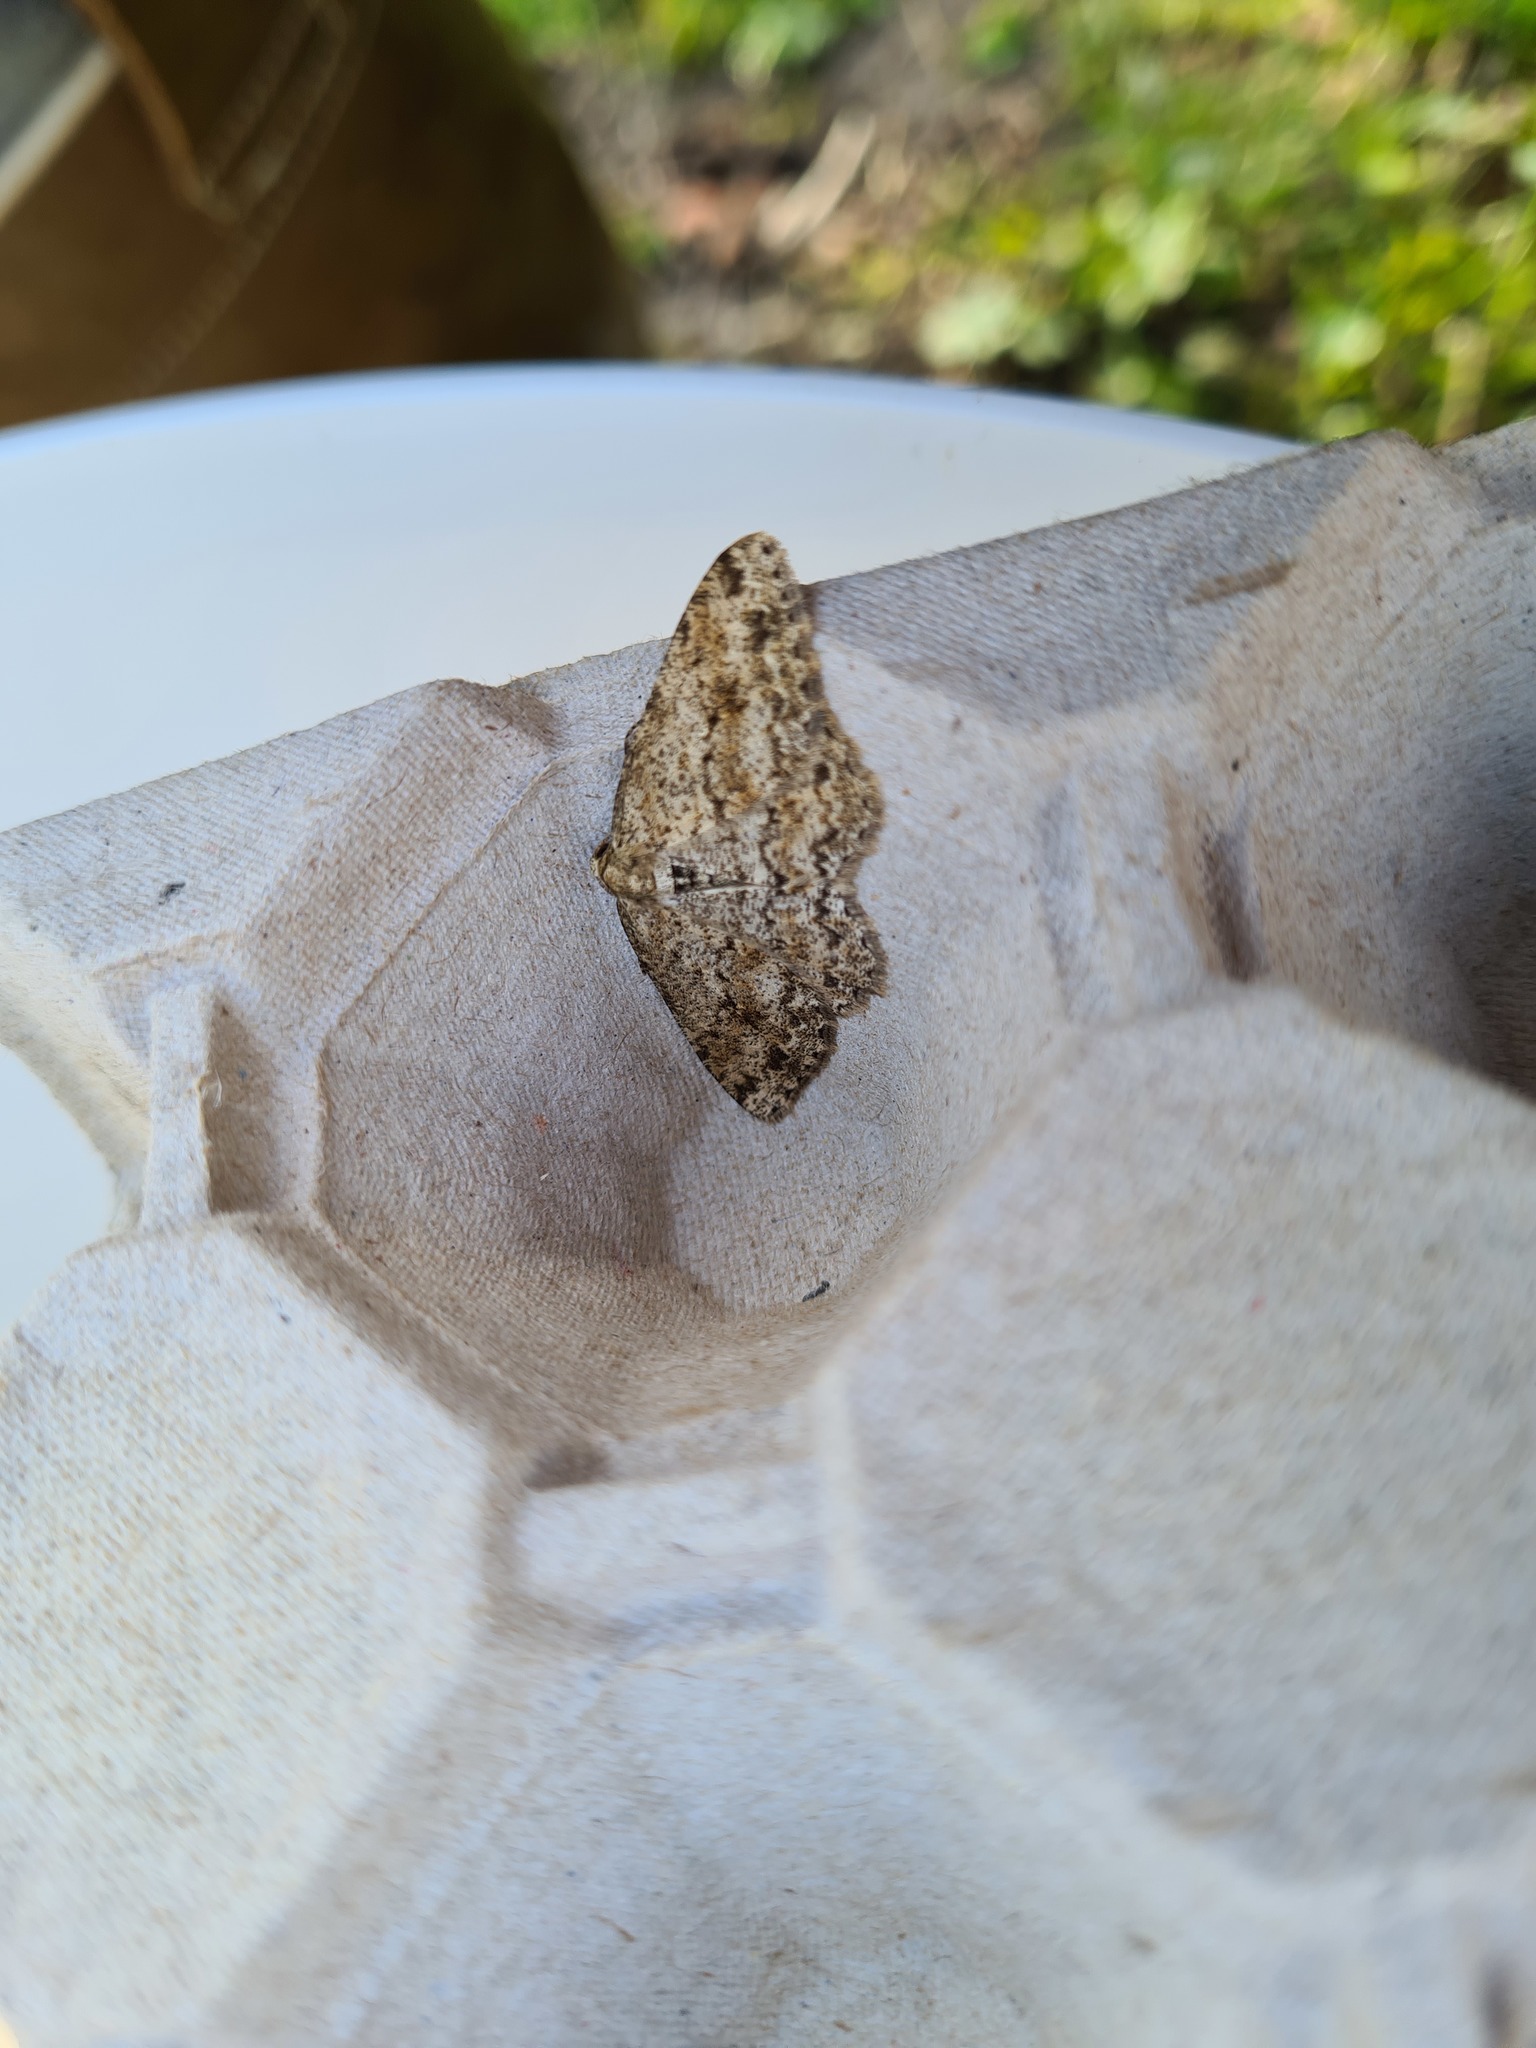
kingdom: Animalia
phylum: Arthropoda
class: Insecta
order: Lepidoptera
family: Geometridae
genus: Ectropis
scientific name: Ectropis crepuscularia
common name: Engrailed
